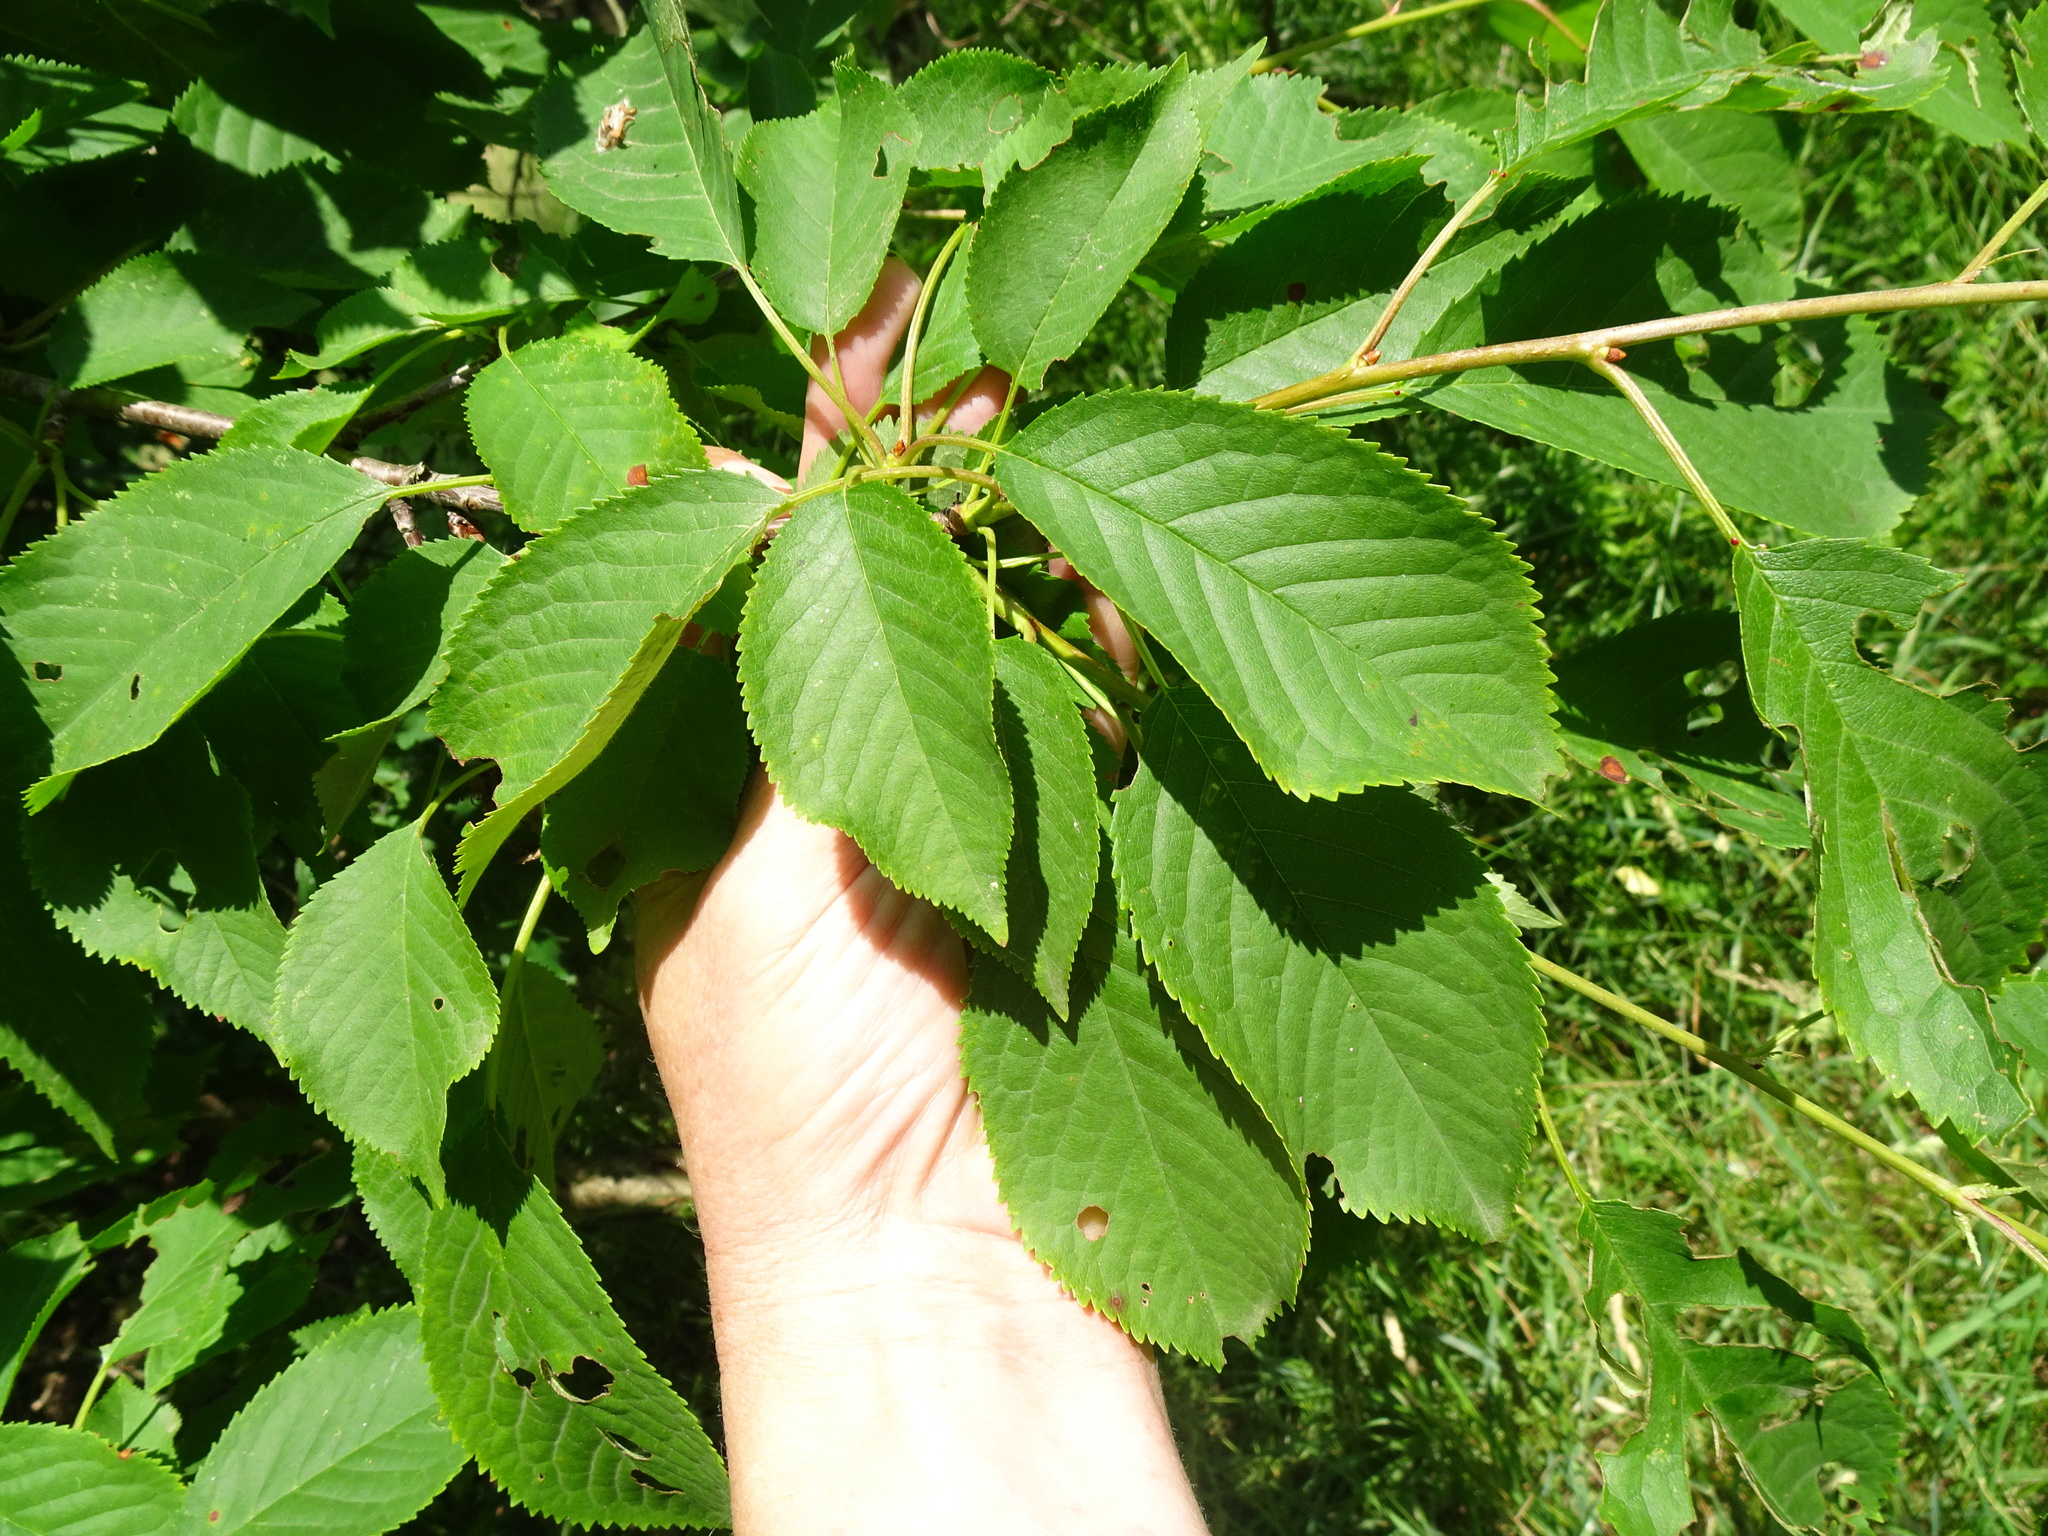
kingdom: Plantae
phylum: Tracheophyta
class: Magnoliopsida
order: Rosales
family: Rosaceae
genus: Prunus
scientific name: Prunus avium
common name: Sweet cherry
